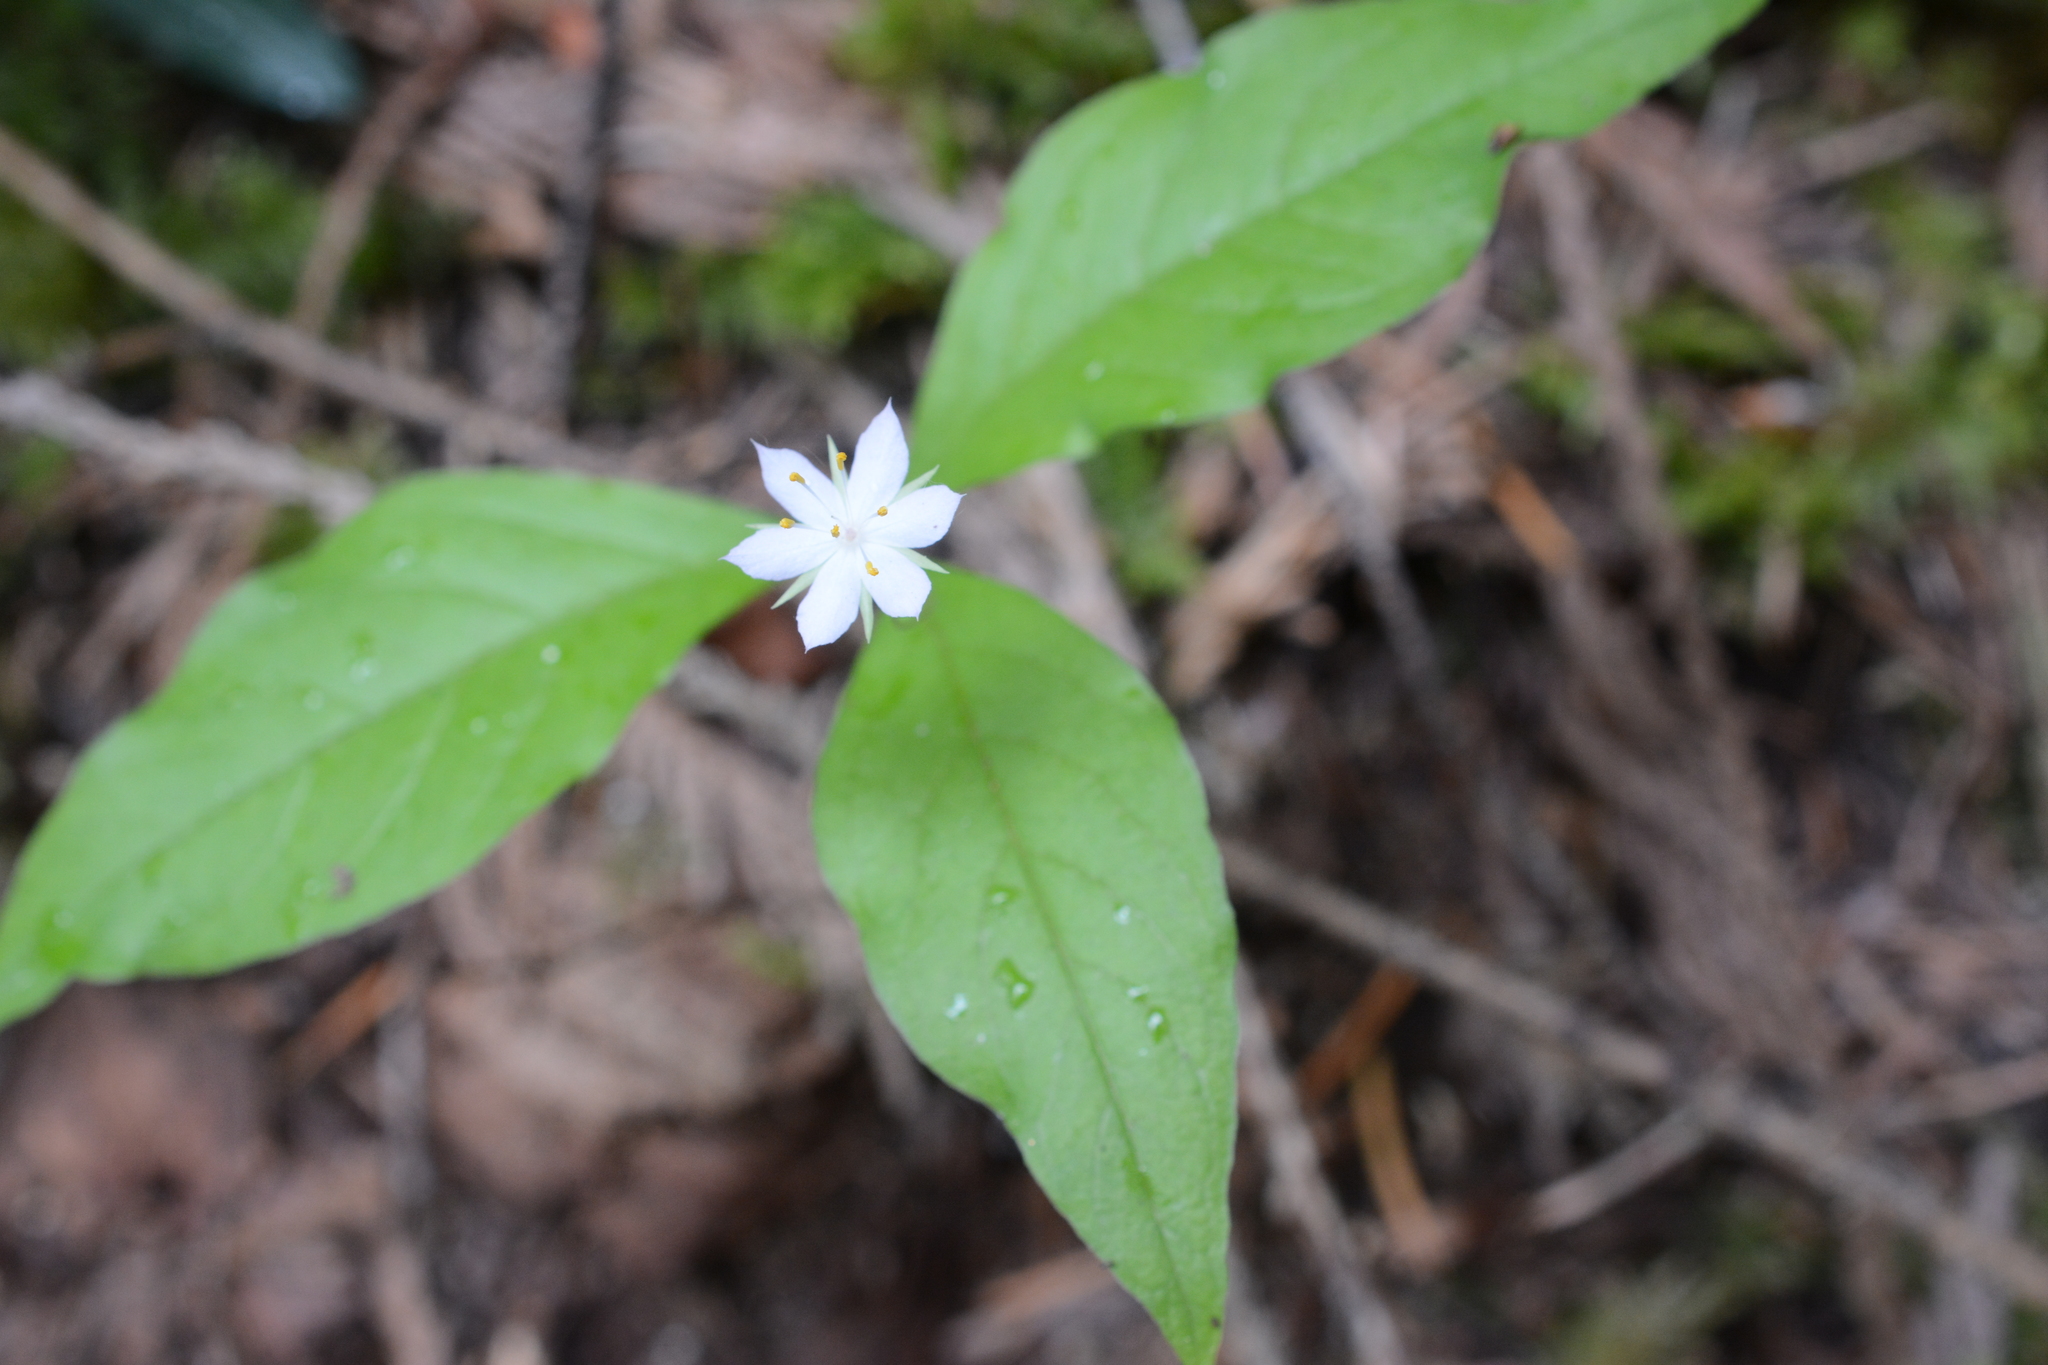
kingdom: Plantae
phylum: Tracheophyta
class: Magnoliopsida
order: Ericales
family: Primulaceae
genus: Lysimachia
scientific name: Lysimachia latifolia
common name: Pacific starflower
